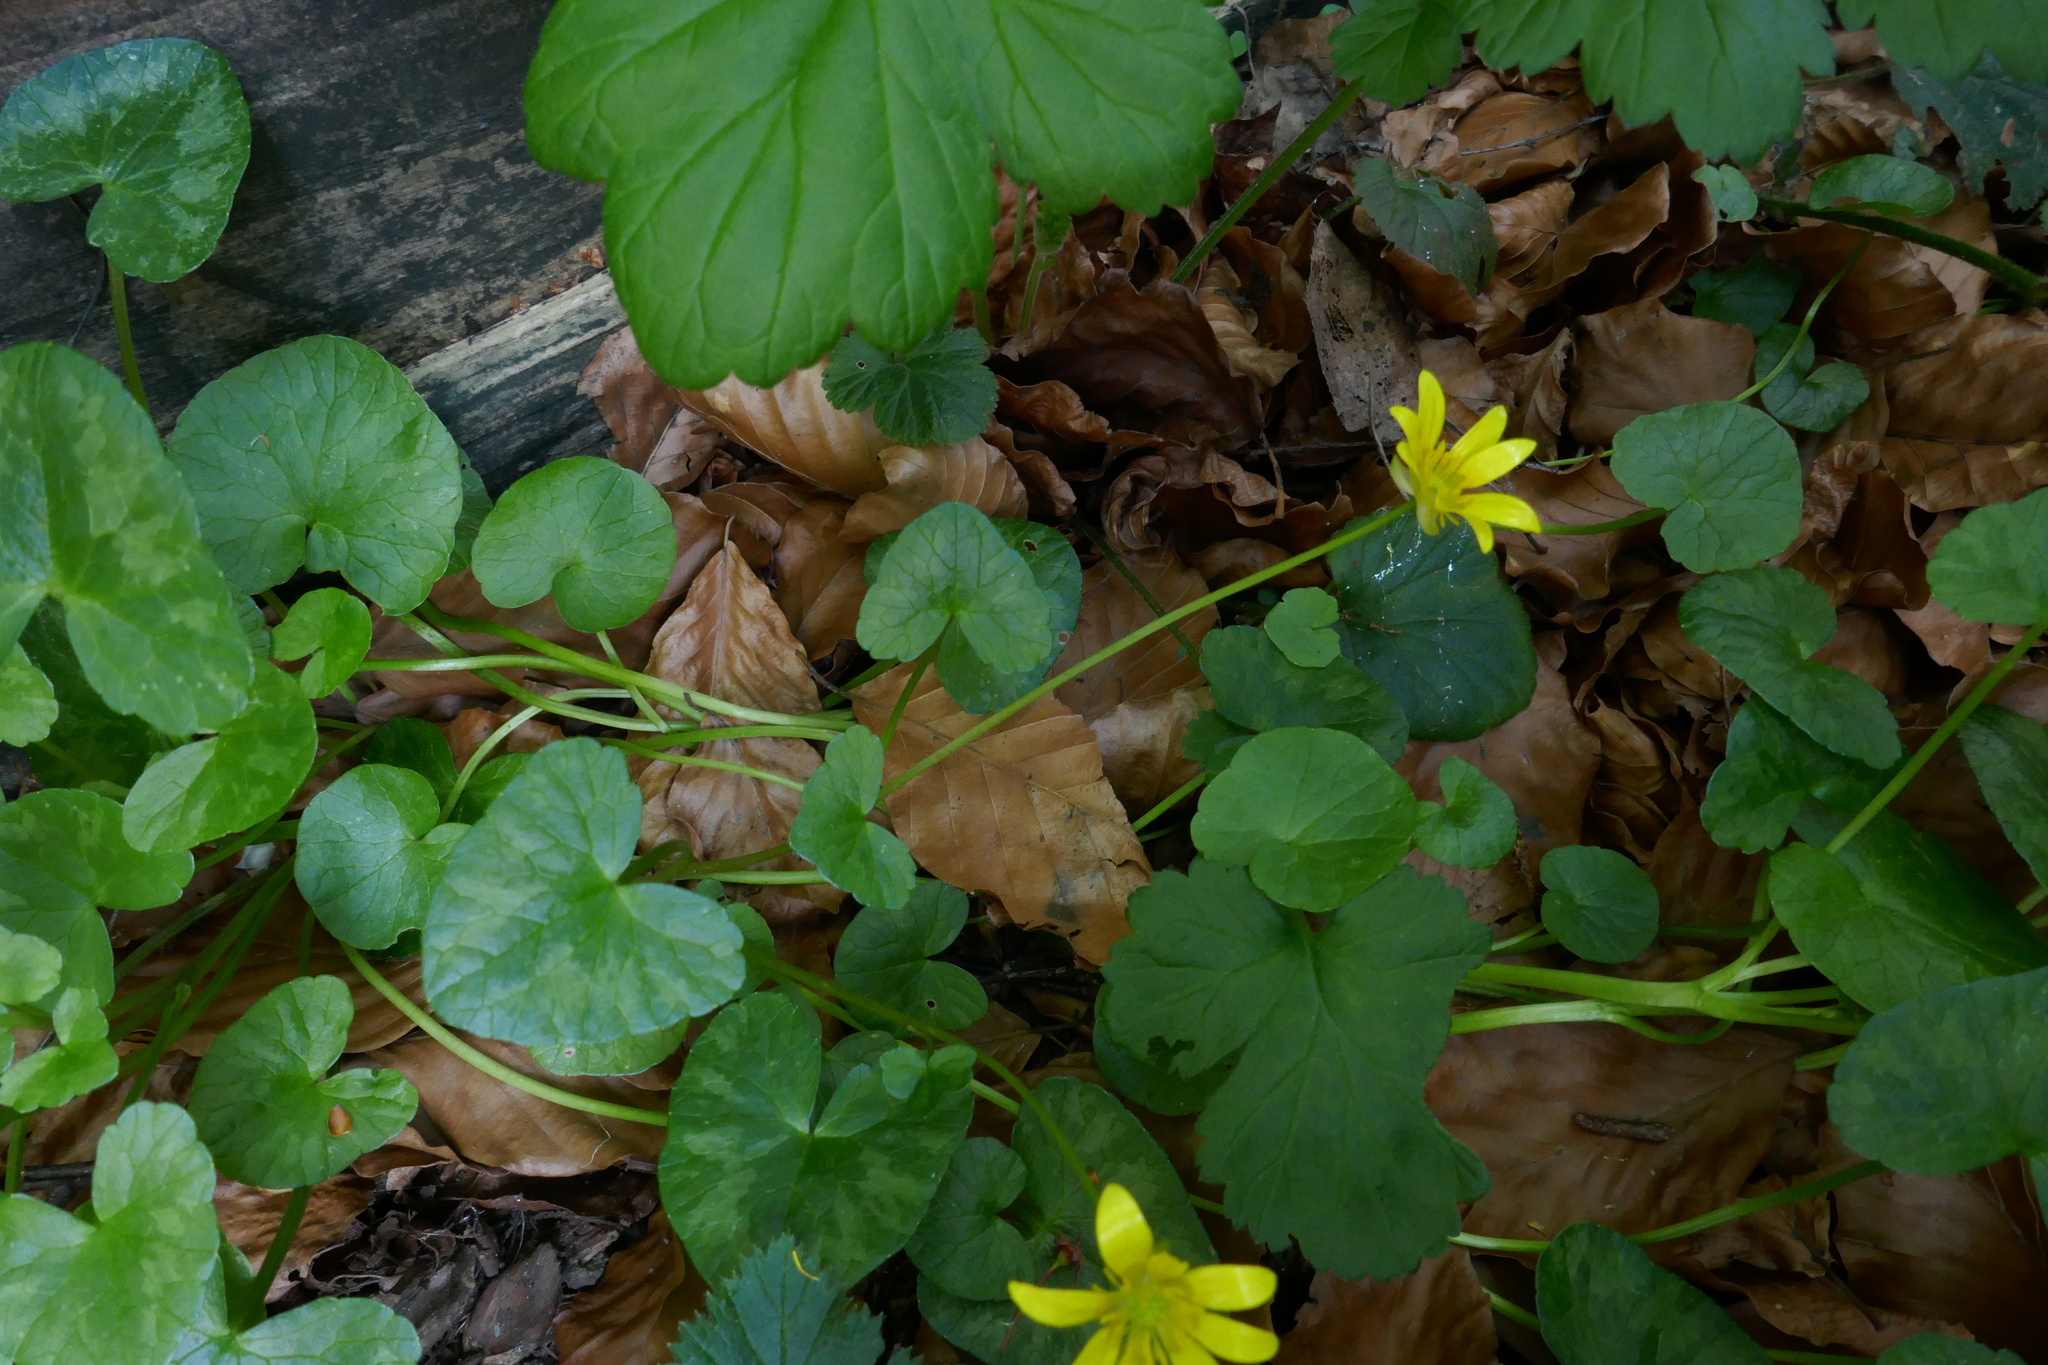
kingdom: Plantae
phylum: Tracheophyta
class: Magnoliopsida
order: Ranunculales
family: Ranunculaceae
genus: Ficaria
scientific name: Ficaria verna
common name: Lesser celandine
